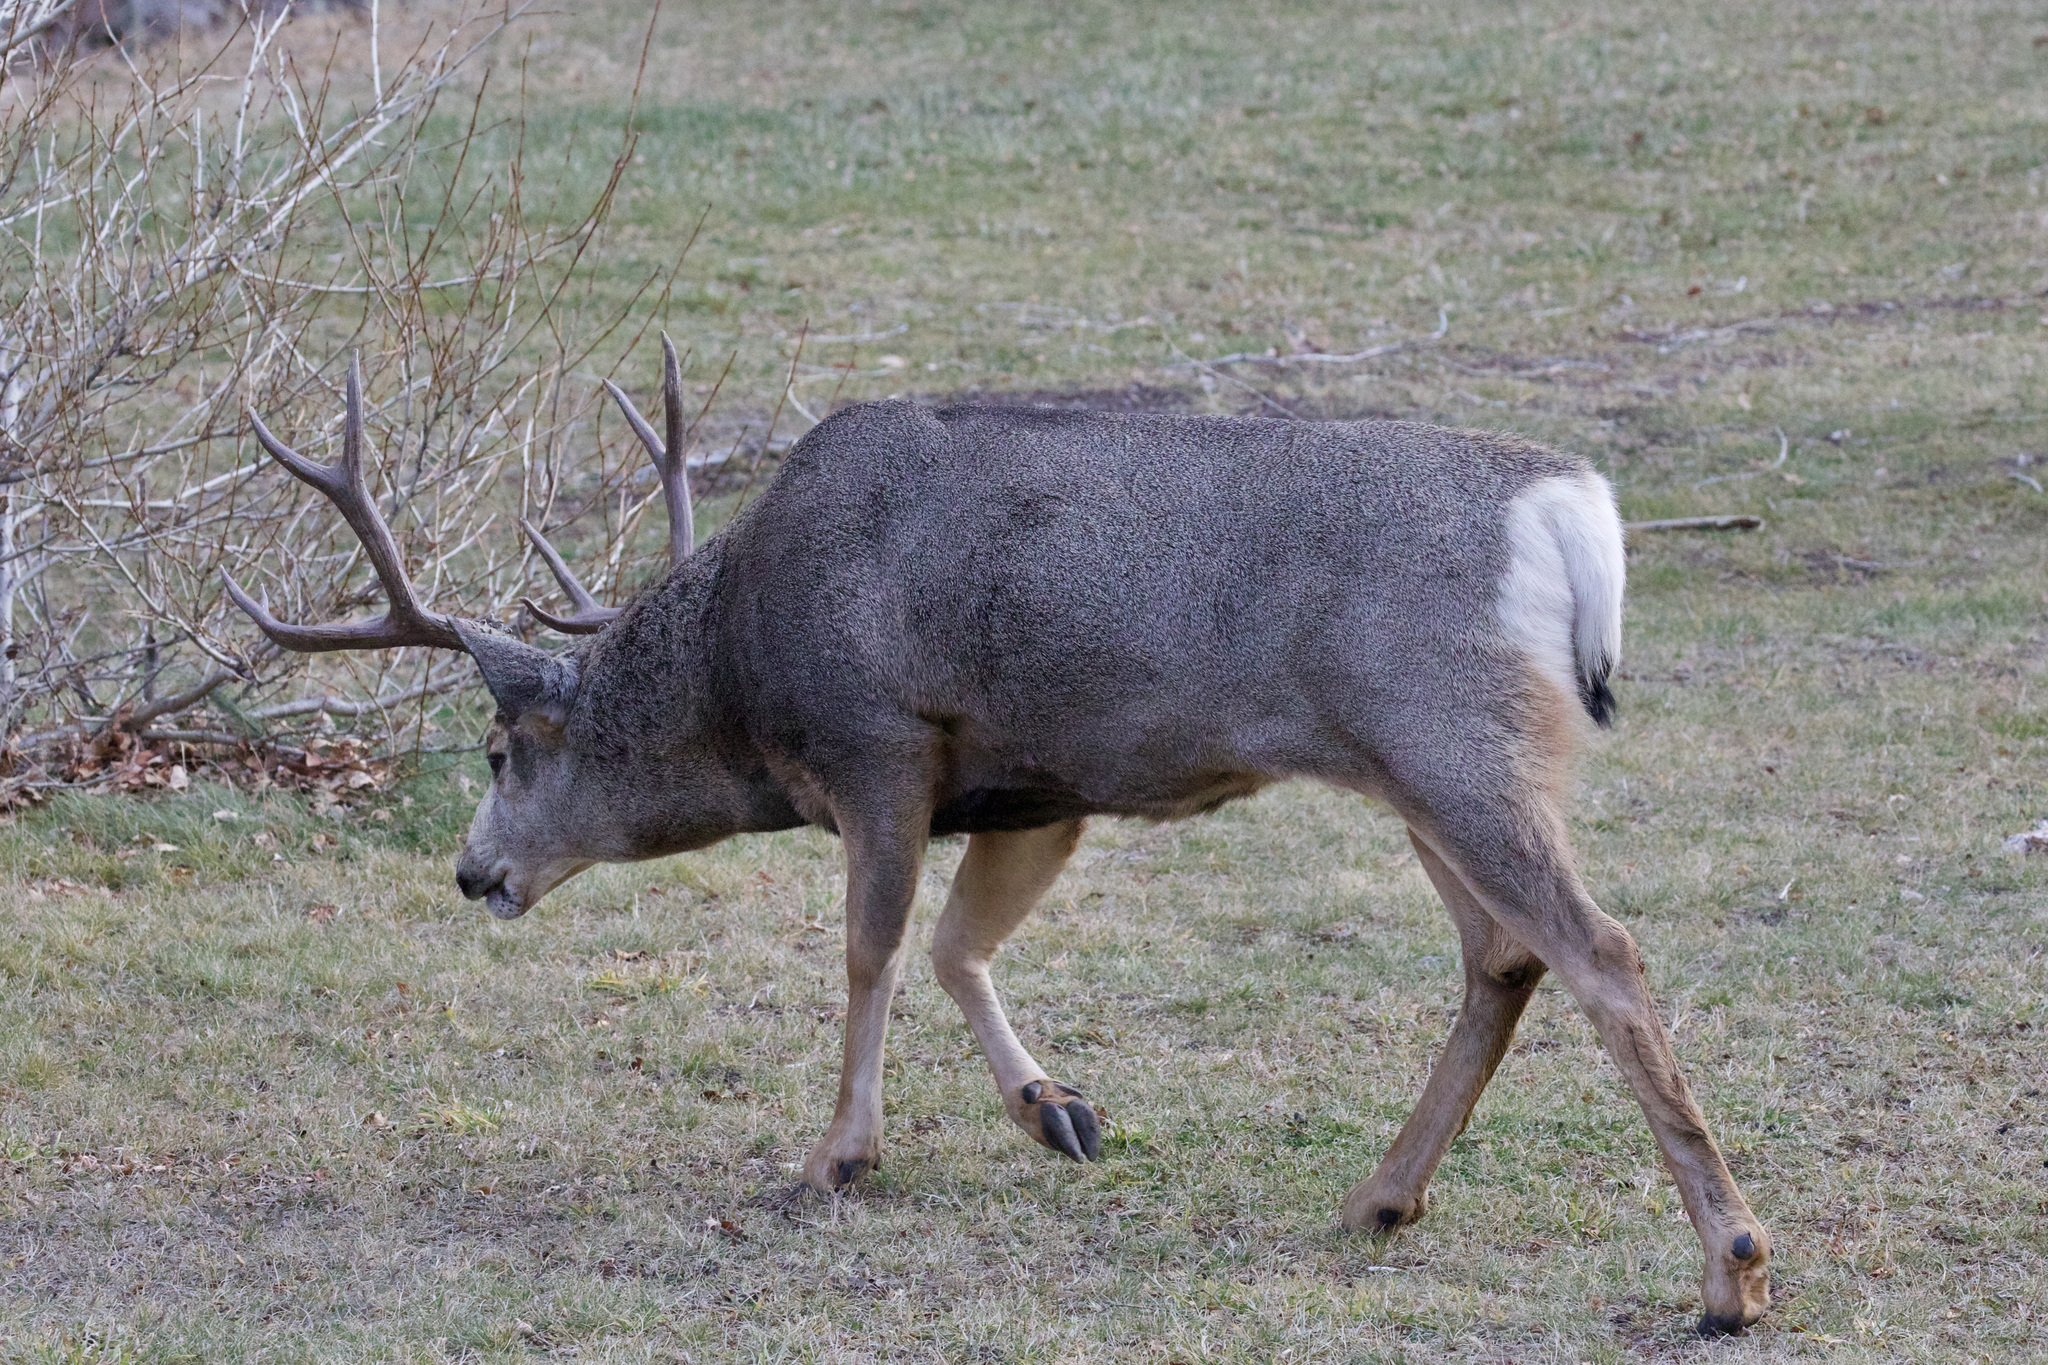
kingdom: Animalia
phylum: Chordata
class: Mammalia
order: Artiodactyla
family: Cervidae
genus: Odocoileus
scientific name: Odocoileus hemionus
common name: Mule deer
